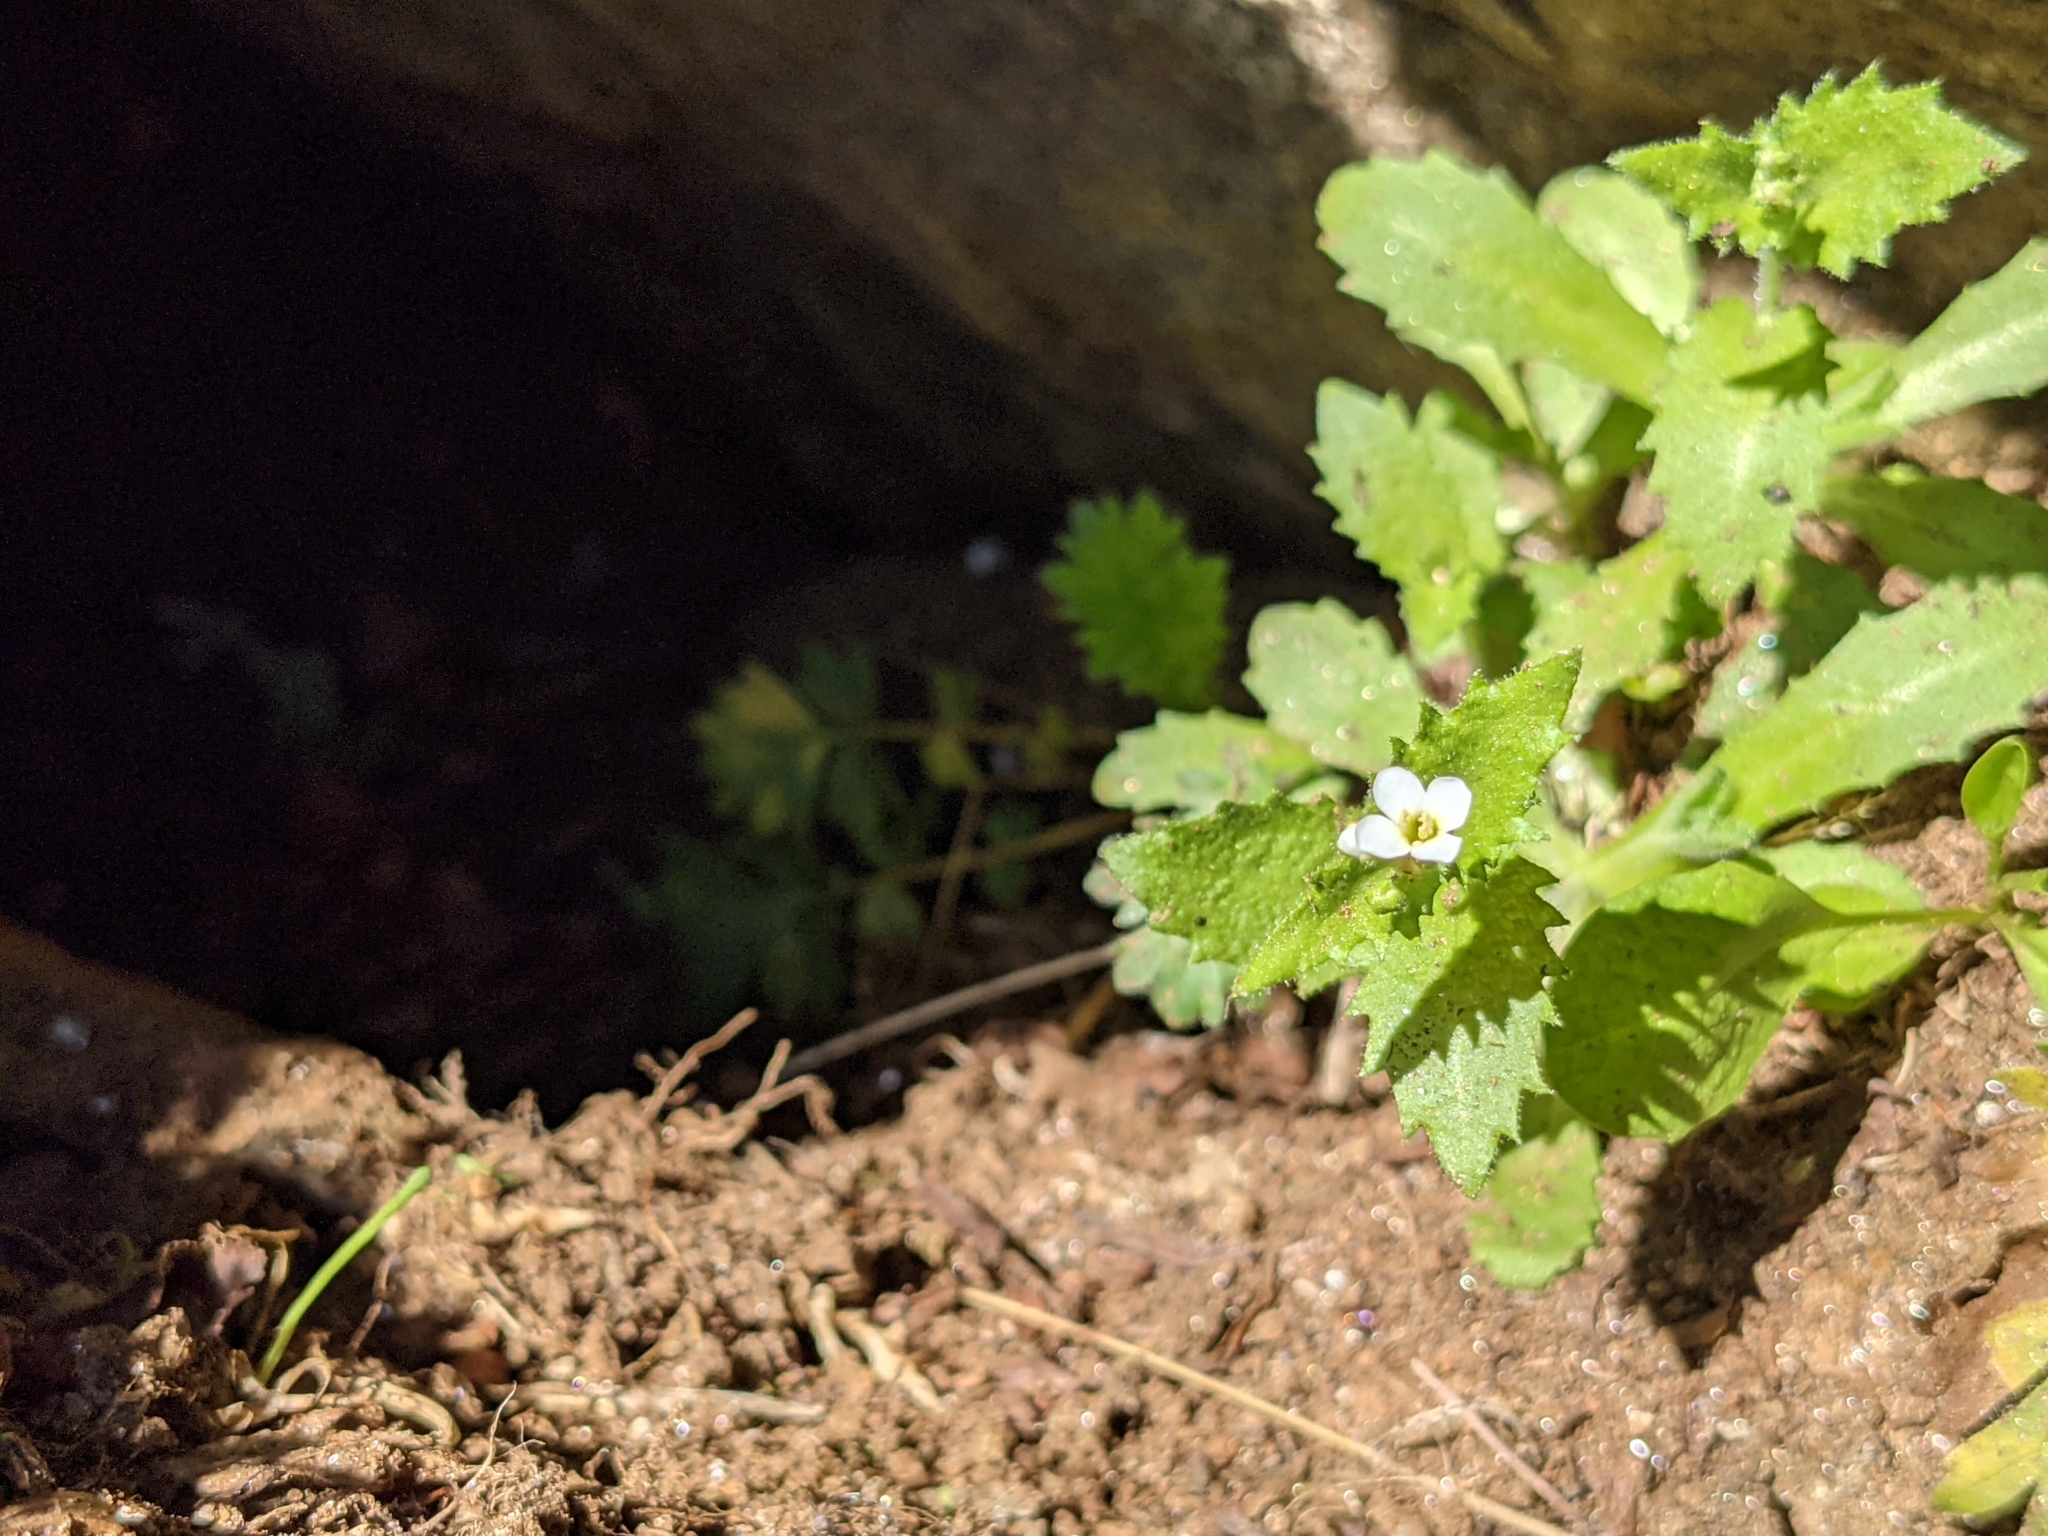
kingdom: Plantae
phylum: Tracheophyta
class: Magnoliopsida
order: Brassicales
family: Brassicaceae
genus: Arabis
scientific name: Arabis alpina
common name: Alpine rock-cress
